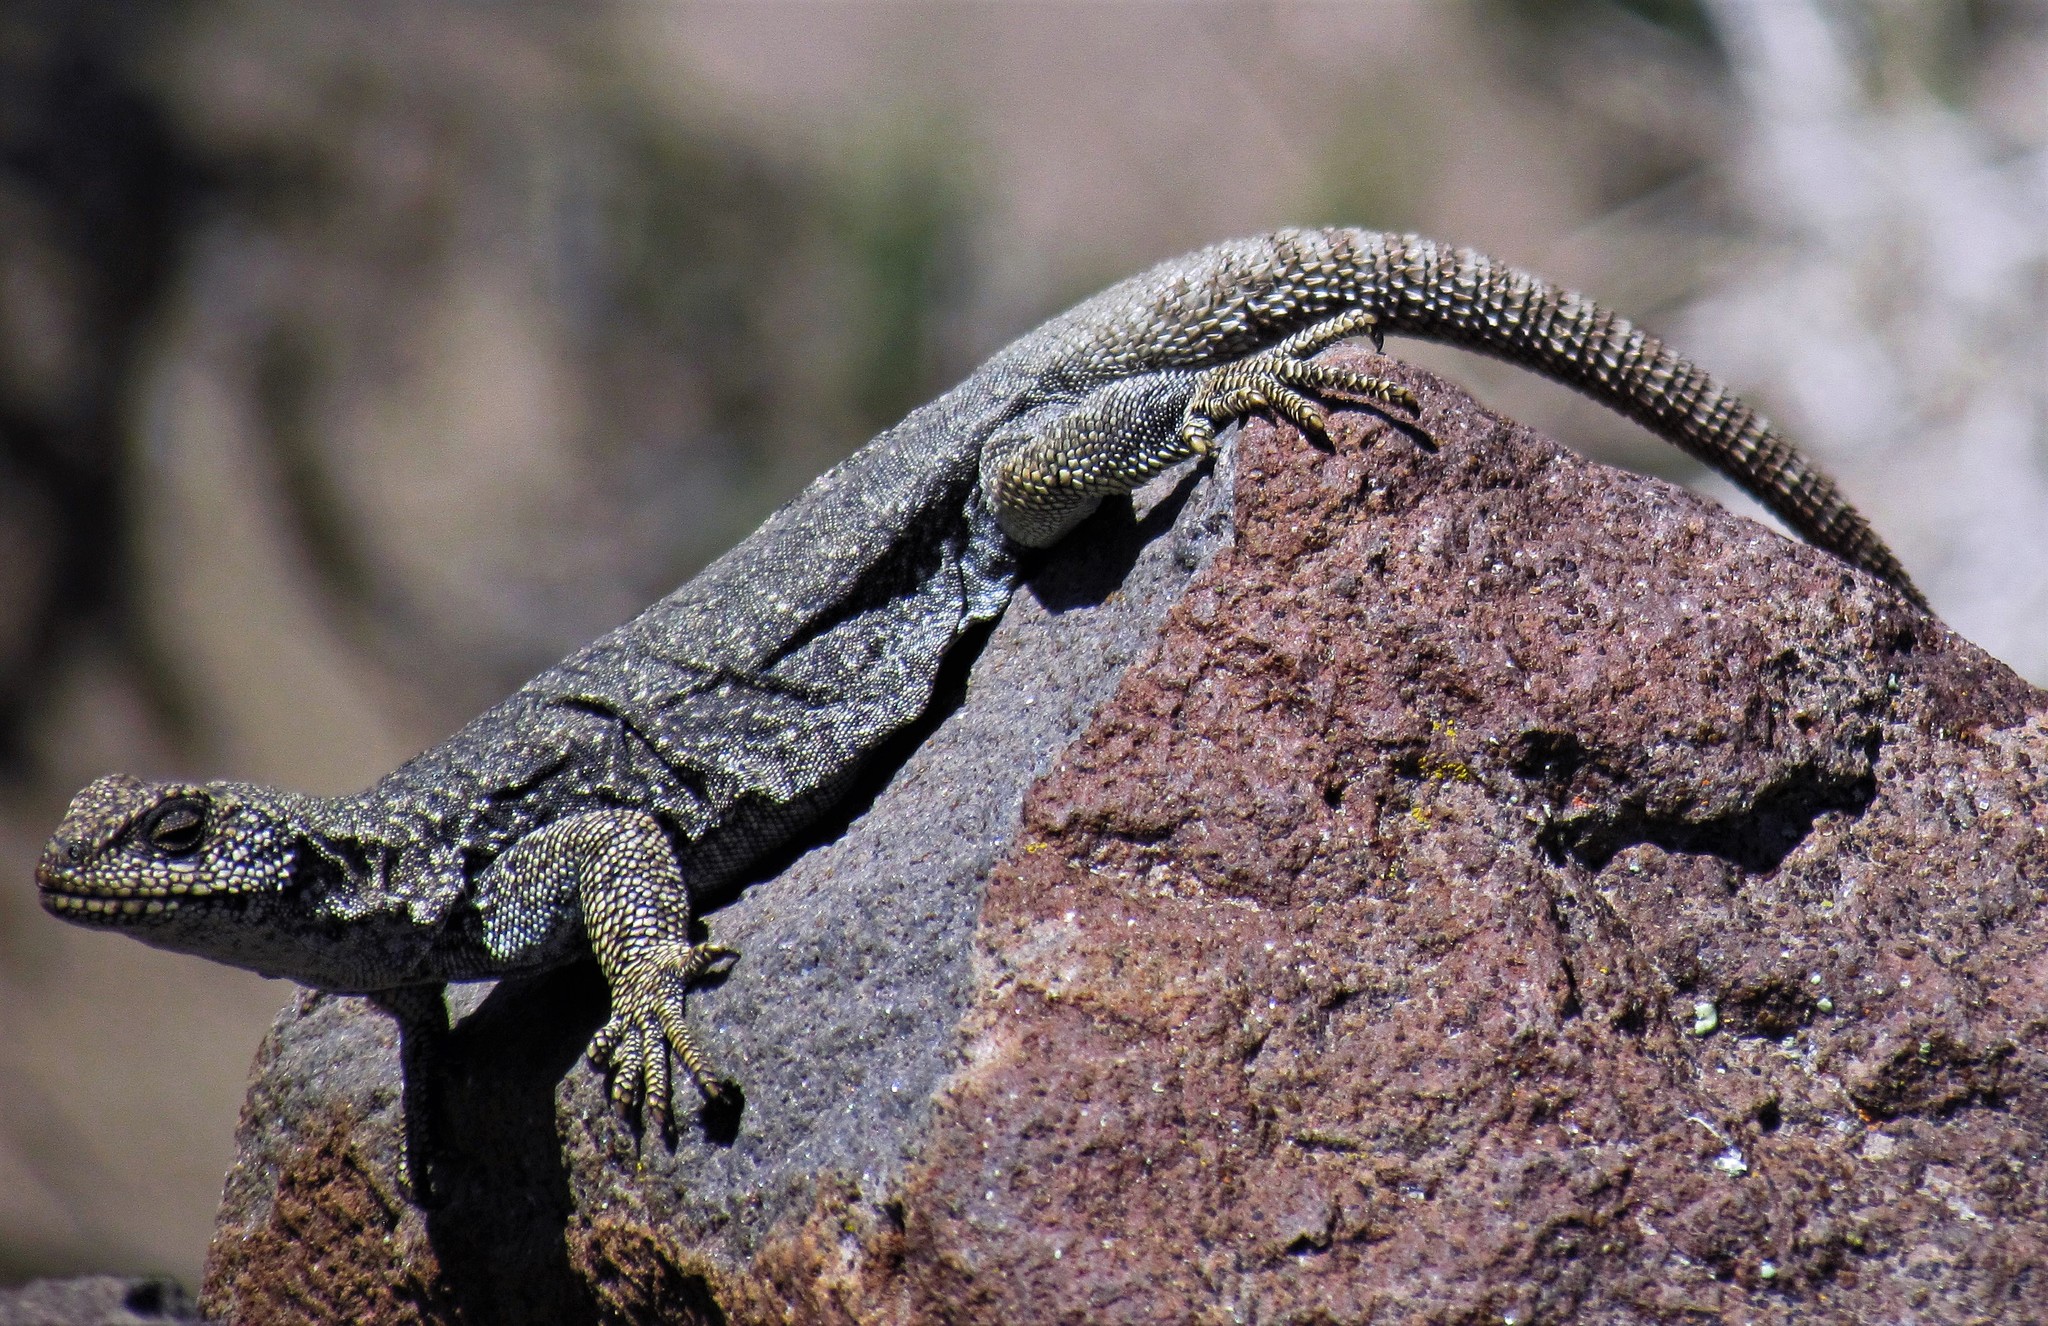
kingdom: Animalia
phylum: Chordata
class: Squamata
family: Liolaemidae
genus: Phymaturus
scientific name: Phymaturus somuncurensis
